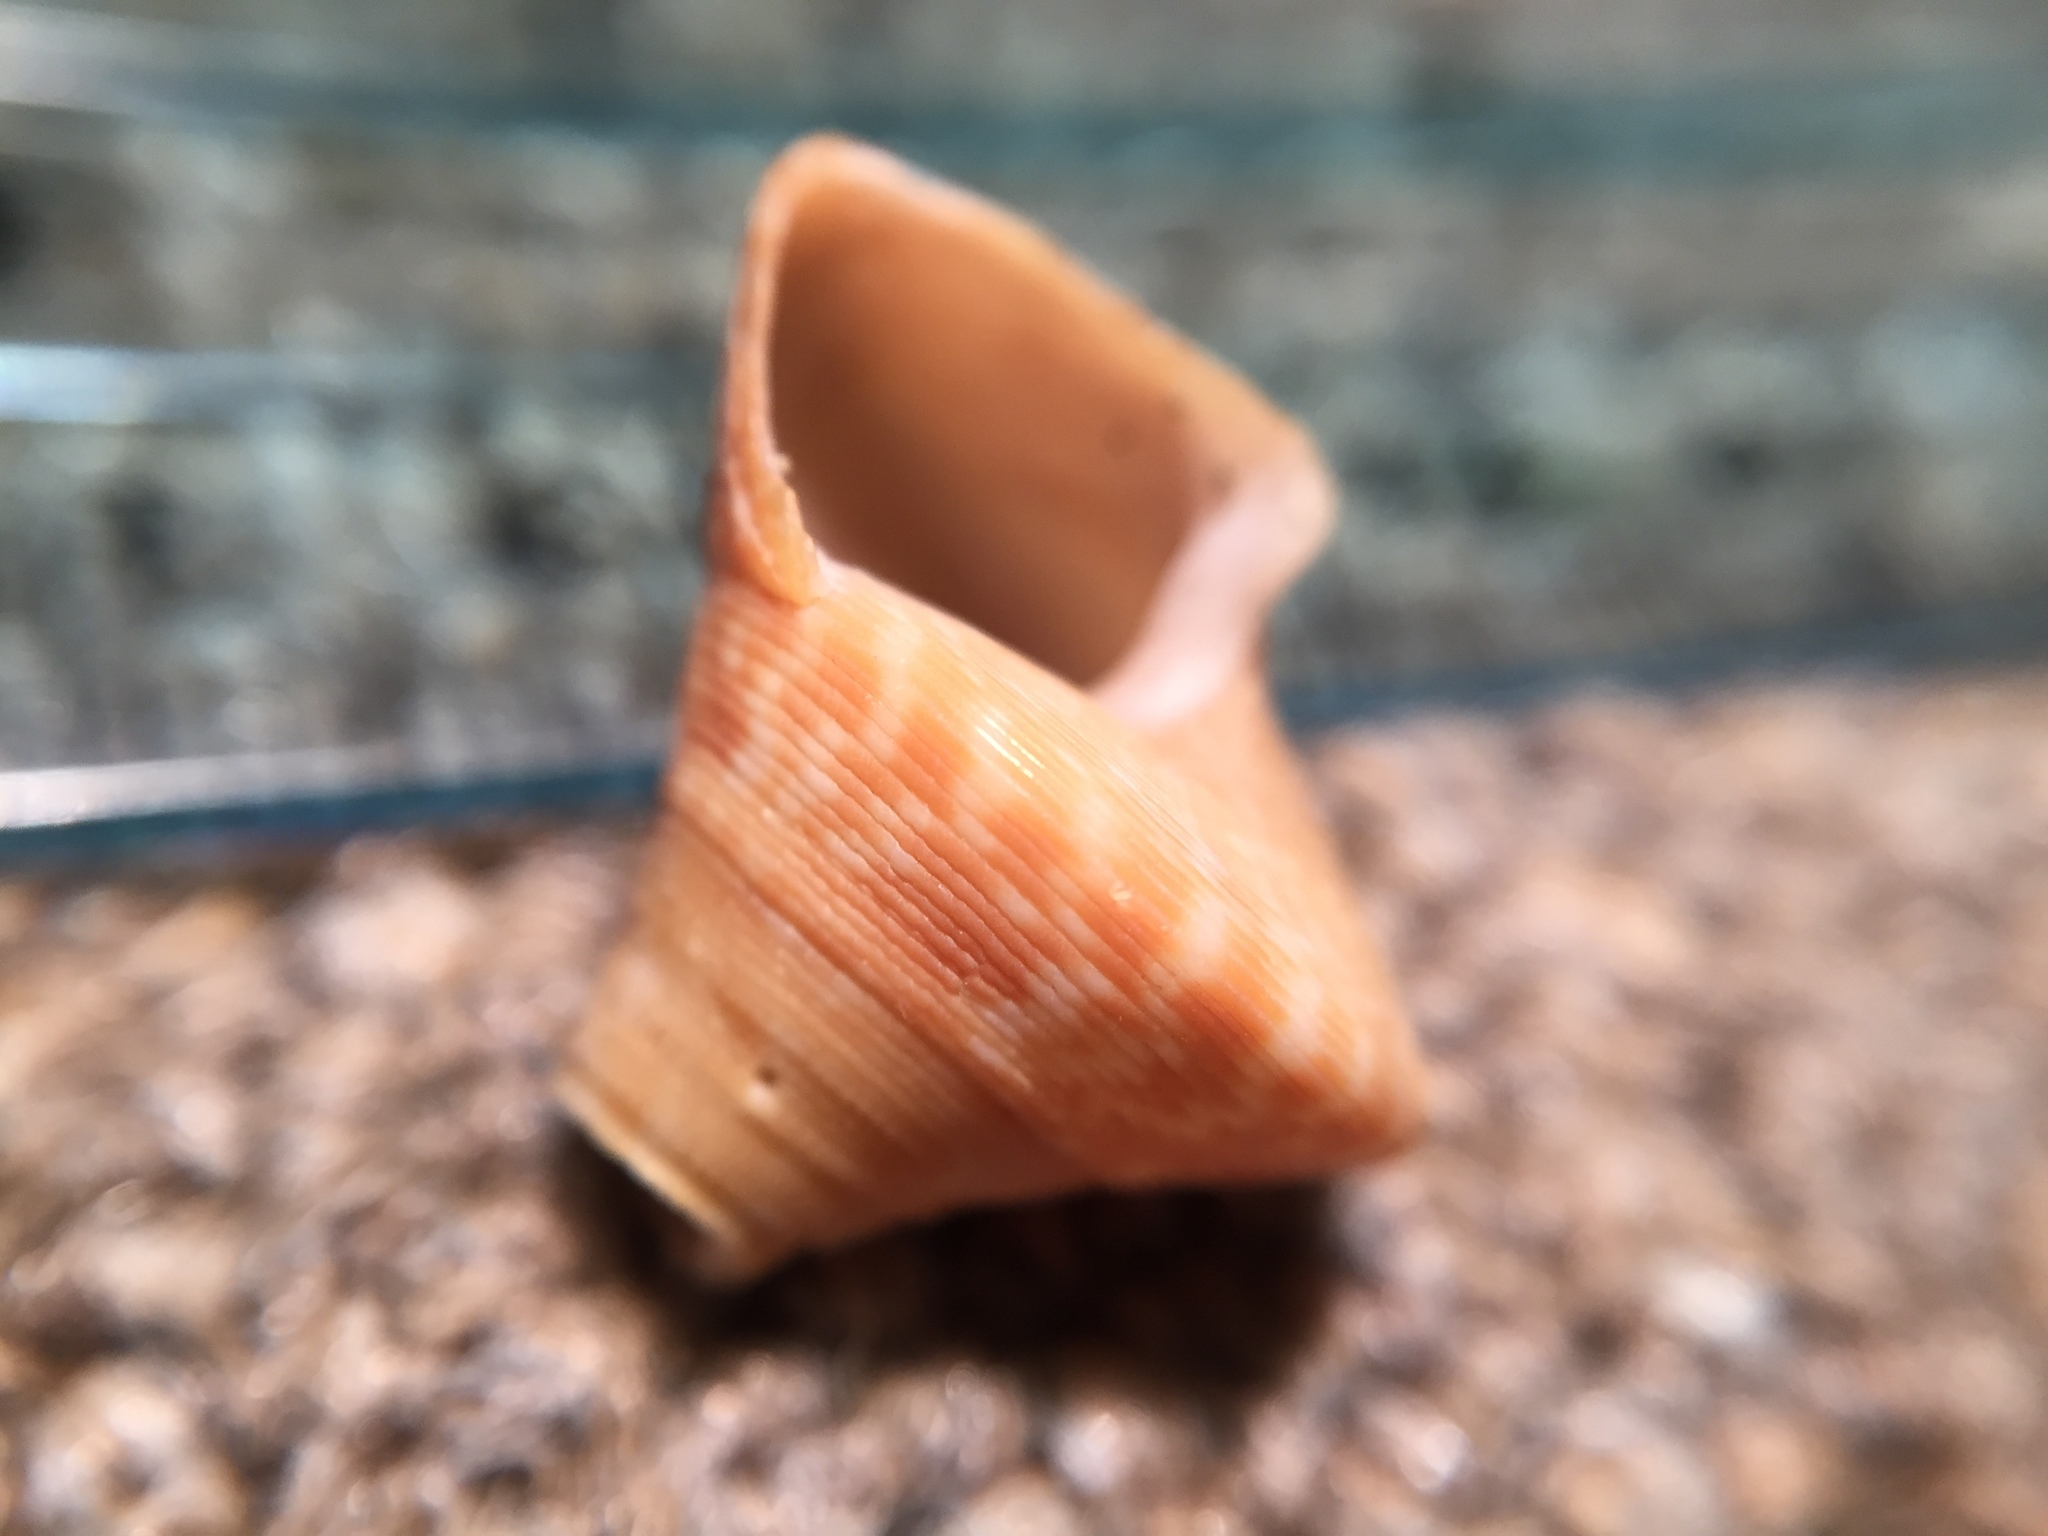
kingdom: Animalia
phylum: Mollusca
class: Gastropoda
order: Trochida
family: Calliostomatidae
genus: Maurea
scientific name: Maurea tigris
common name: Tiger maurea
